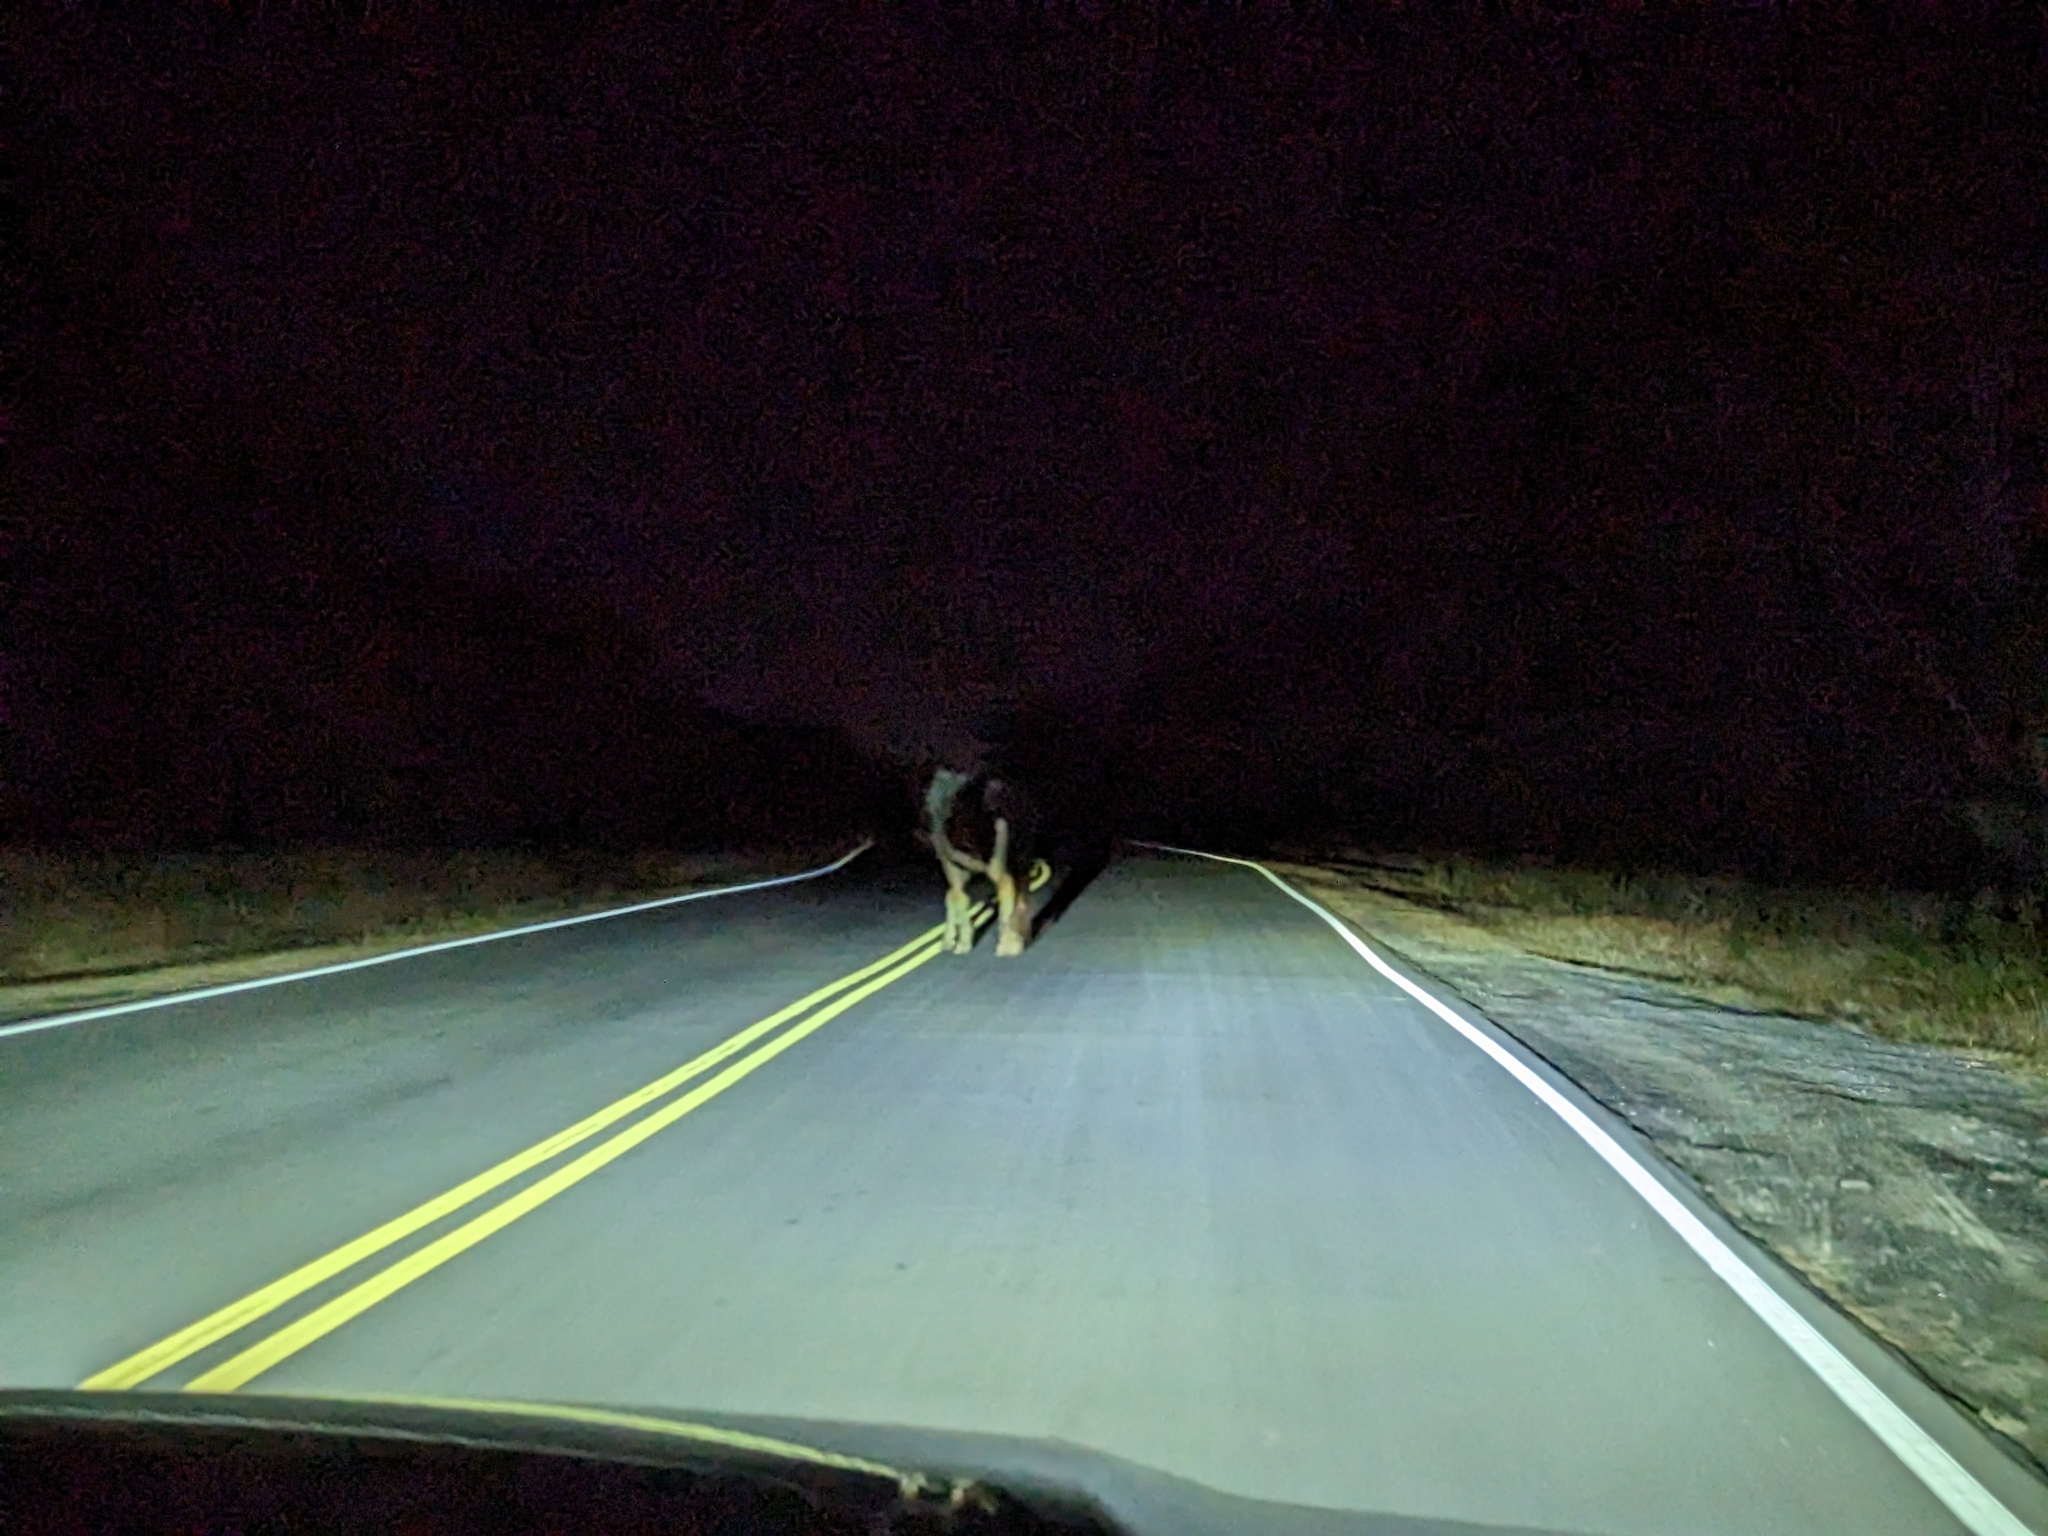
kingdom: Animalia
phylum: Chordata
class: Mammalia
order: Perissodactyla
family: Equidae
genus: Equus
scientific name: Equus caballus
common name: Horse
